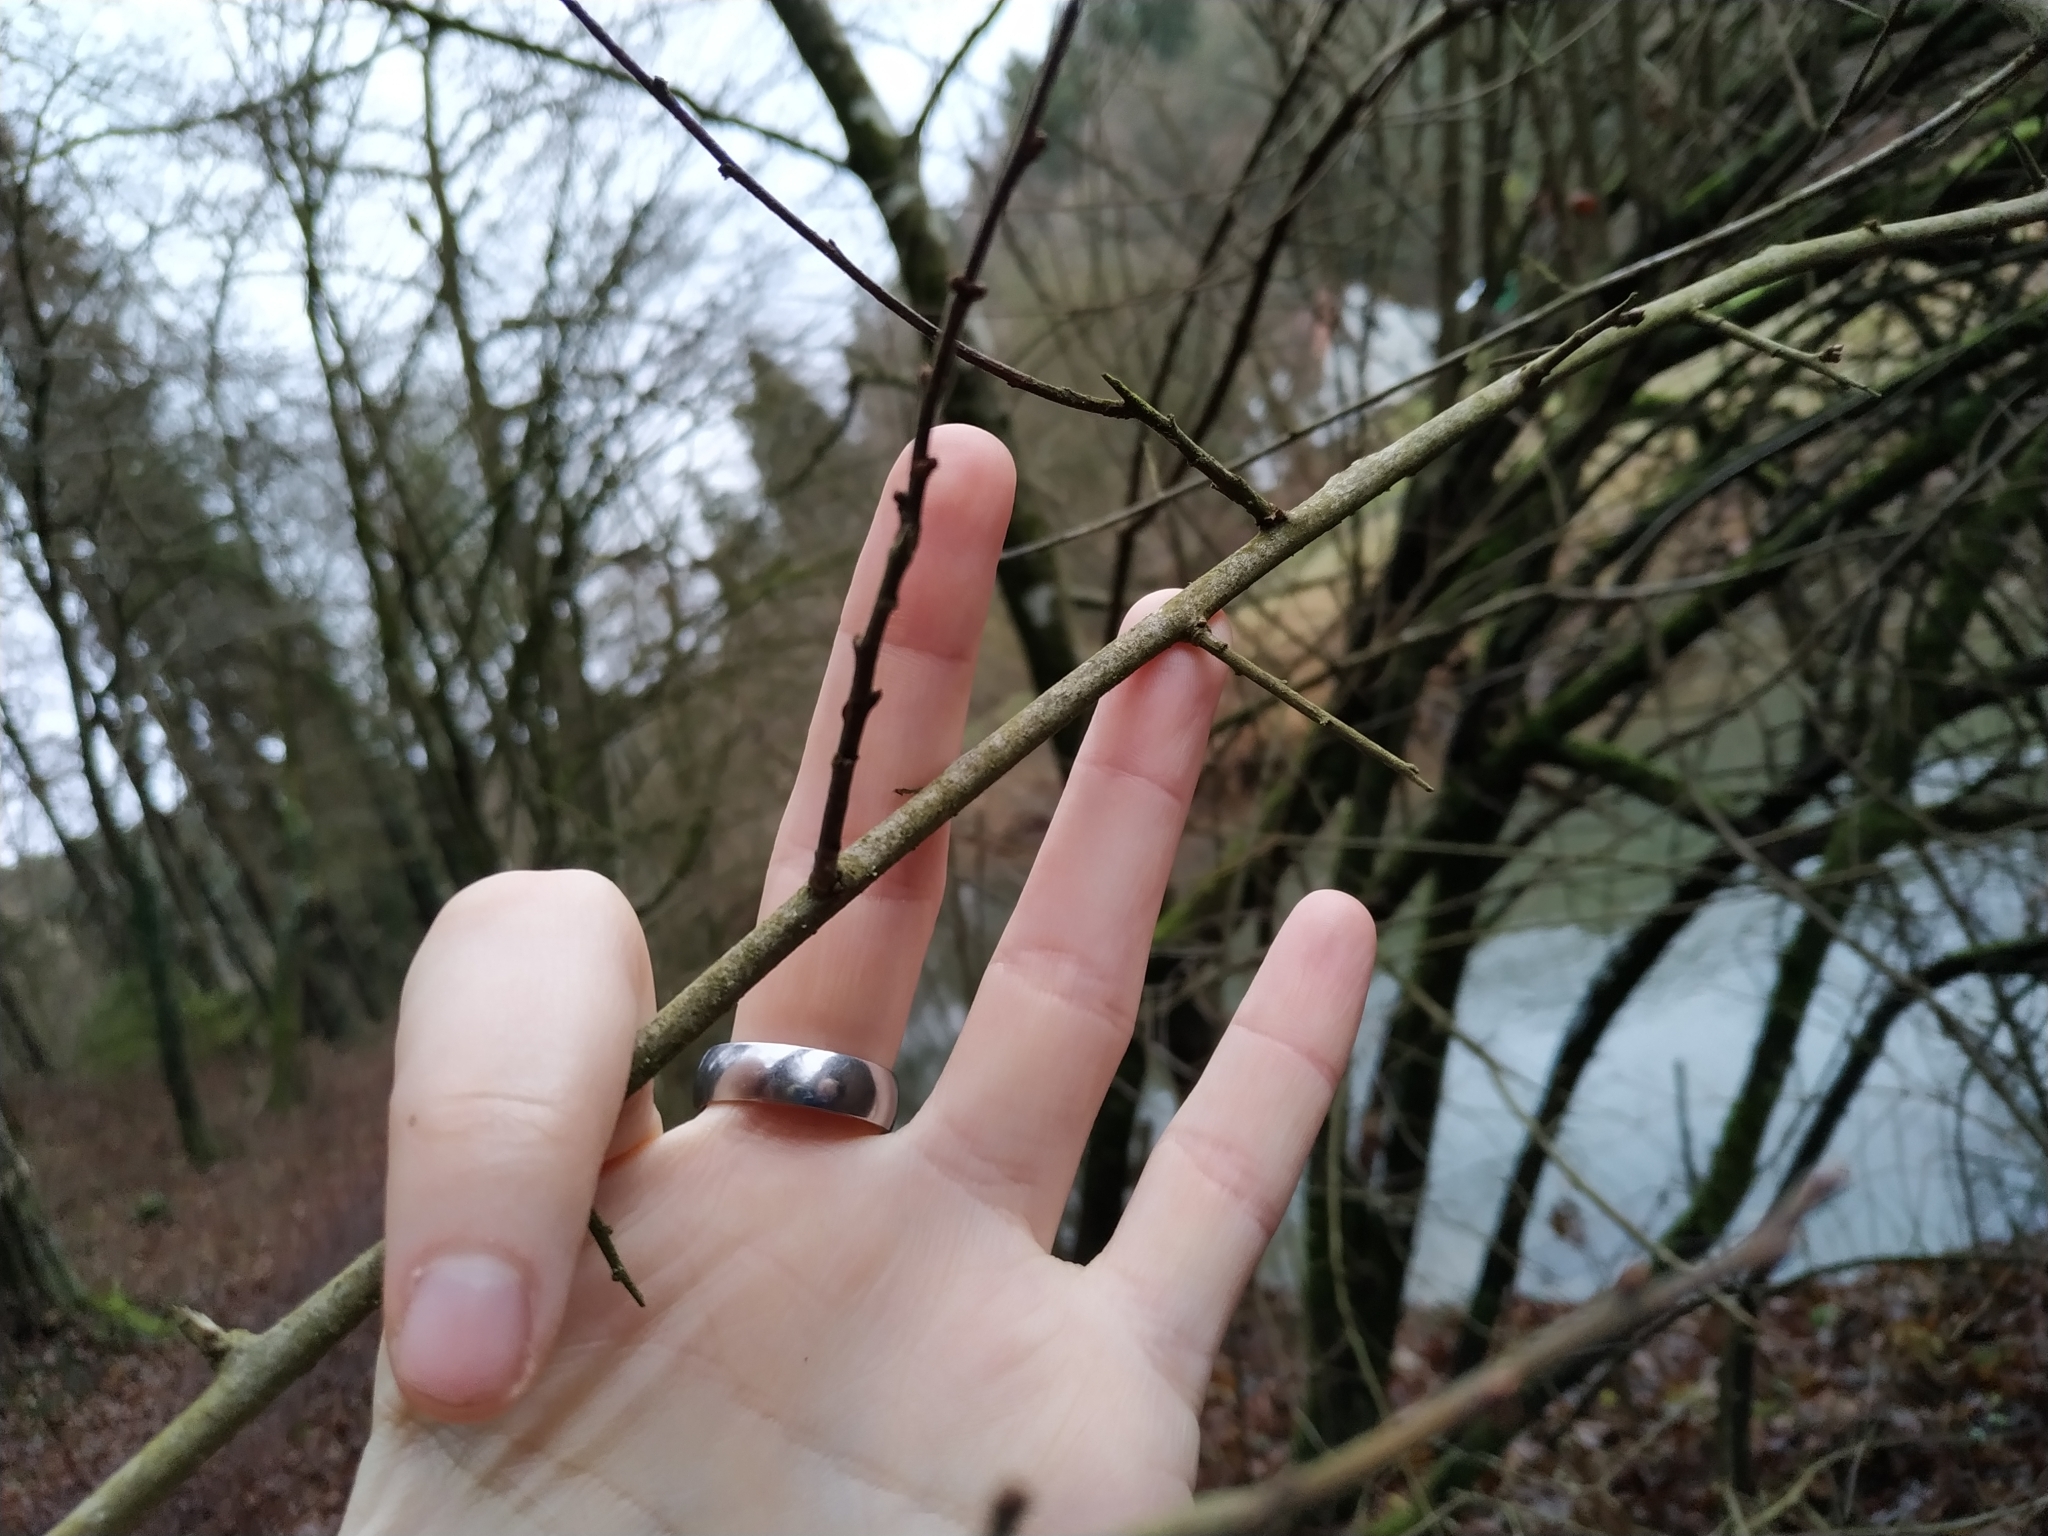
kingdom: Plantae
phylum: Tracheophyta
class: Magnoliopsida
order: Rosales
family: Rosaceae
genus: Prunus
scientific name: Prunus spinosa
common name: Blackthorn
